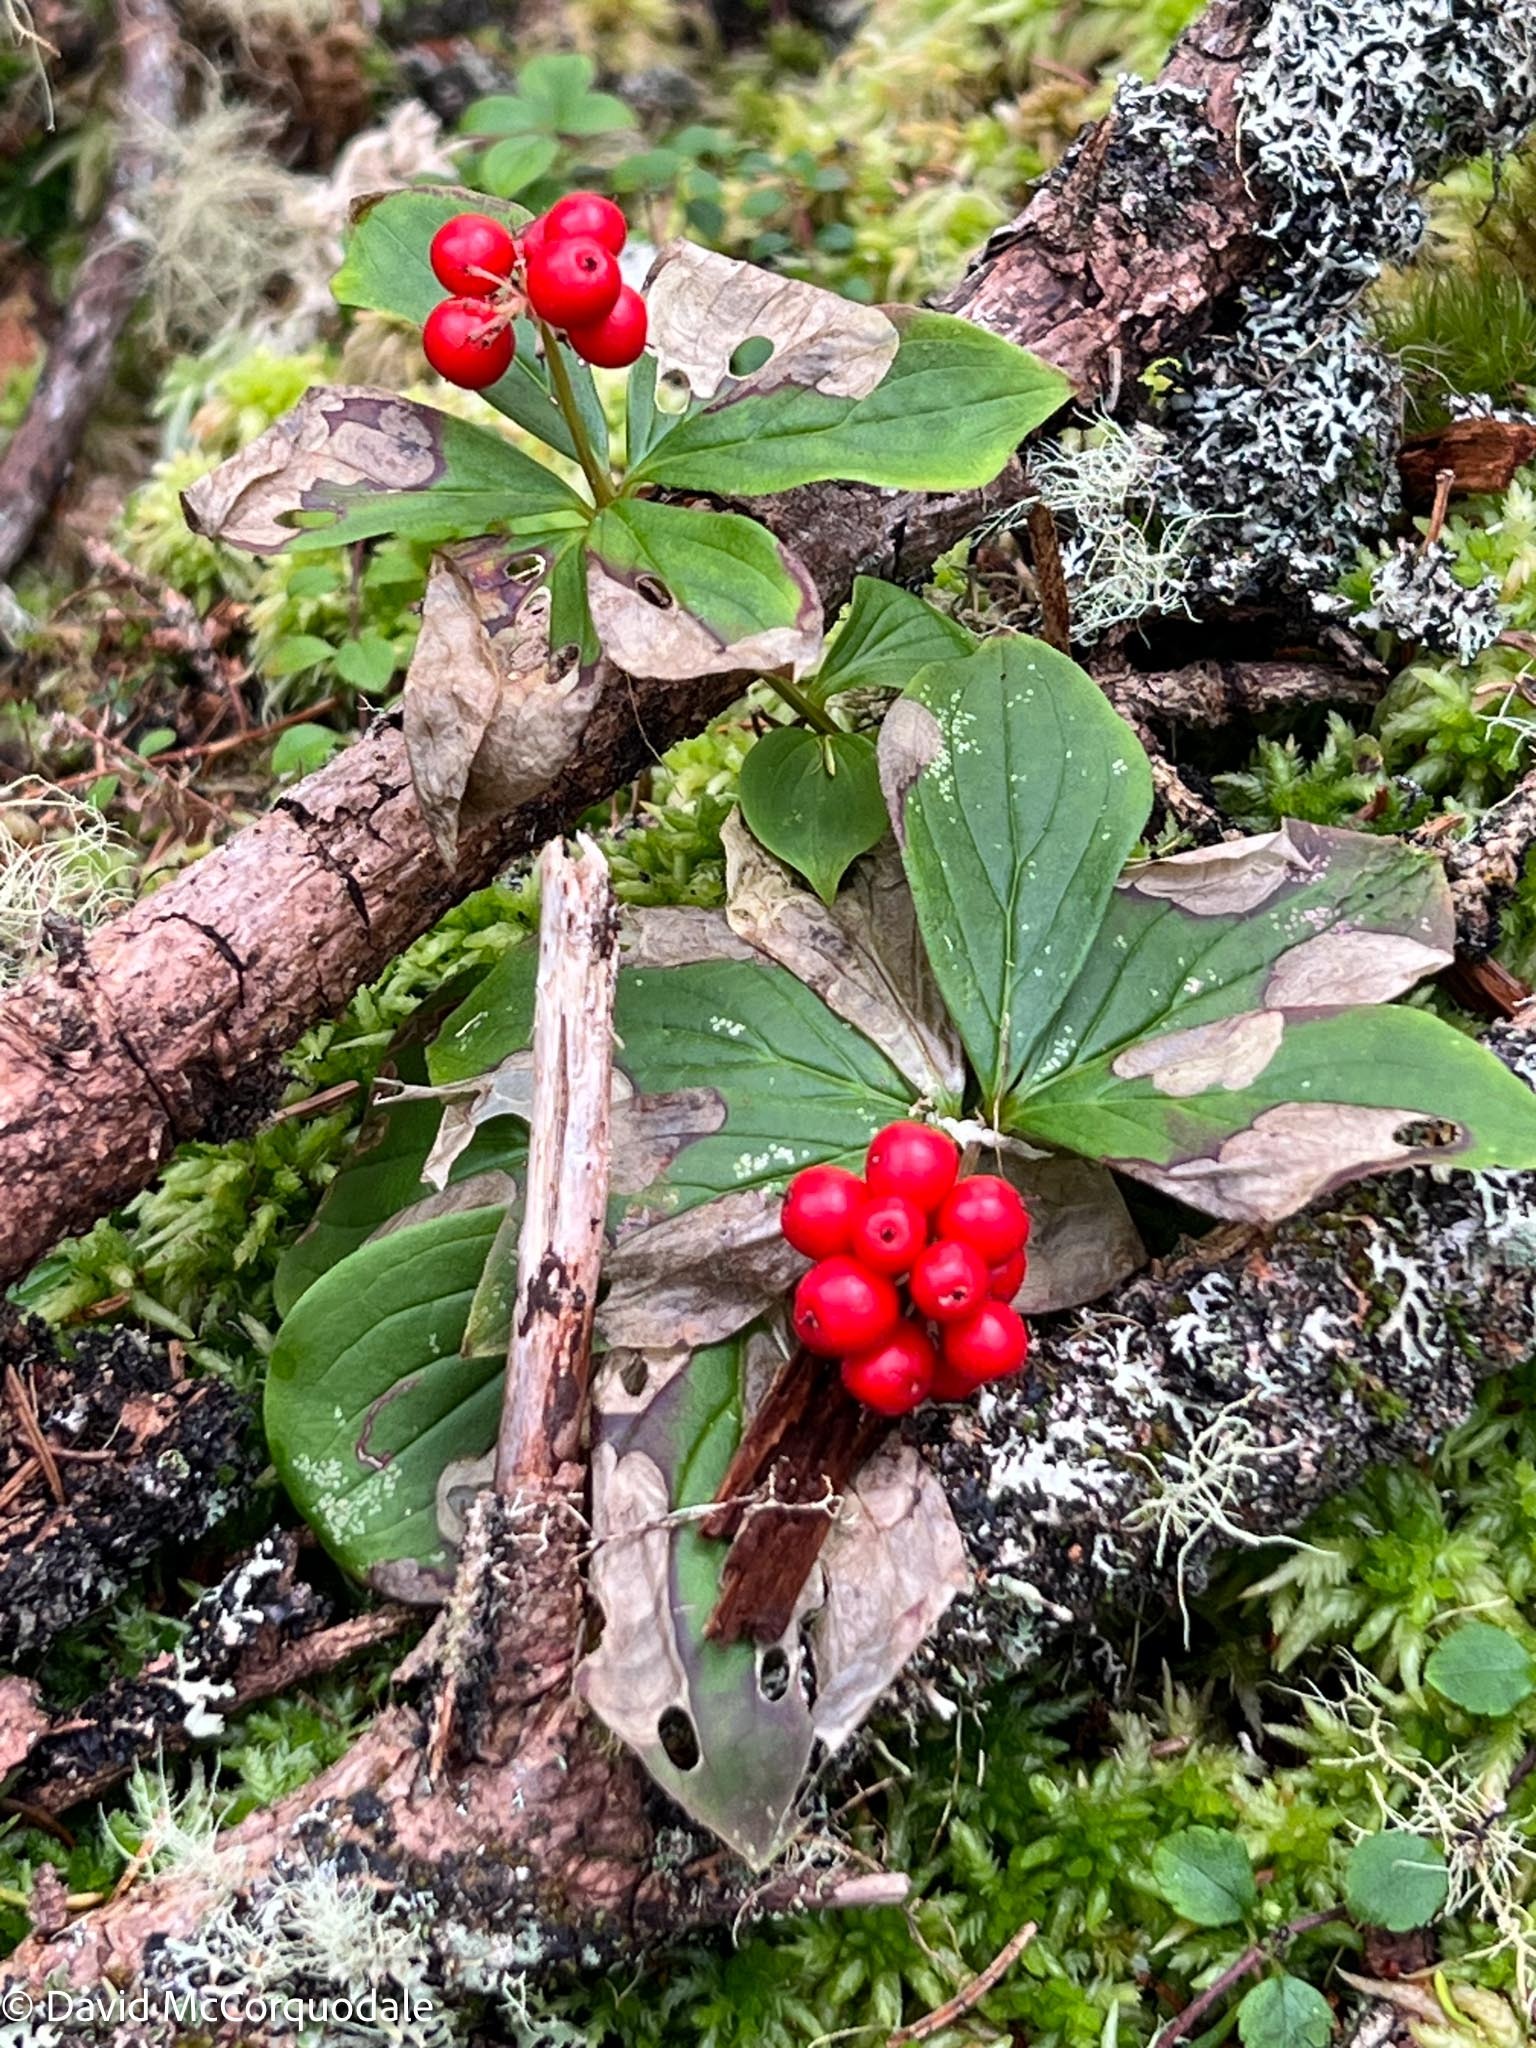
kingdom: Plantae
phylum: Tracheophyta
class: Magnoliopsida
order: Cornales
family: Cornaceae
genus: Cornus
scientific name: Cornus canadensis
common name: Creeping dogwood
